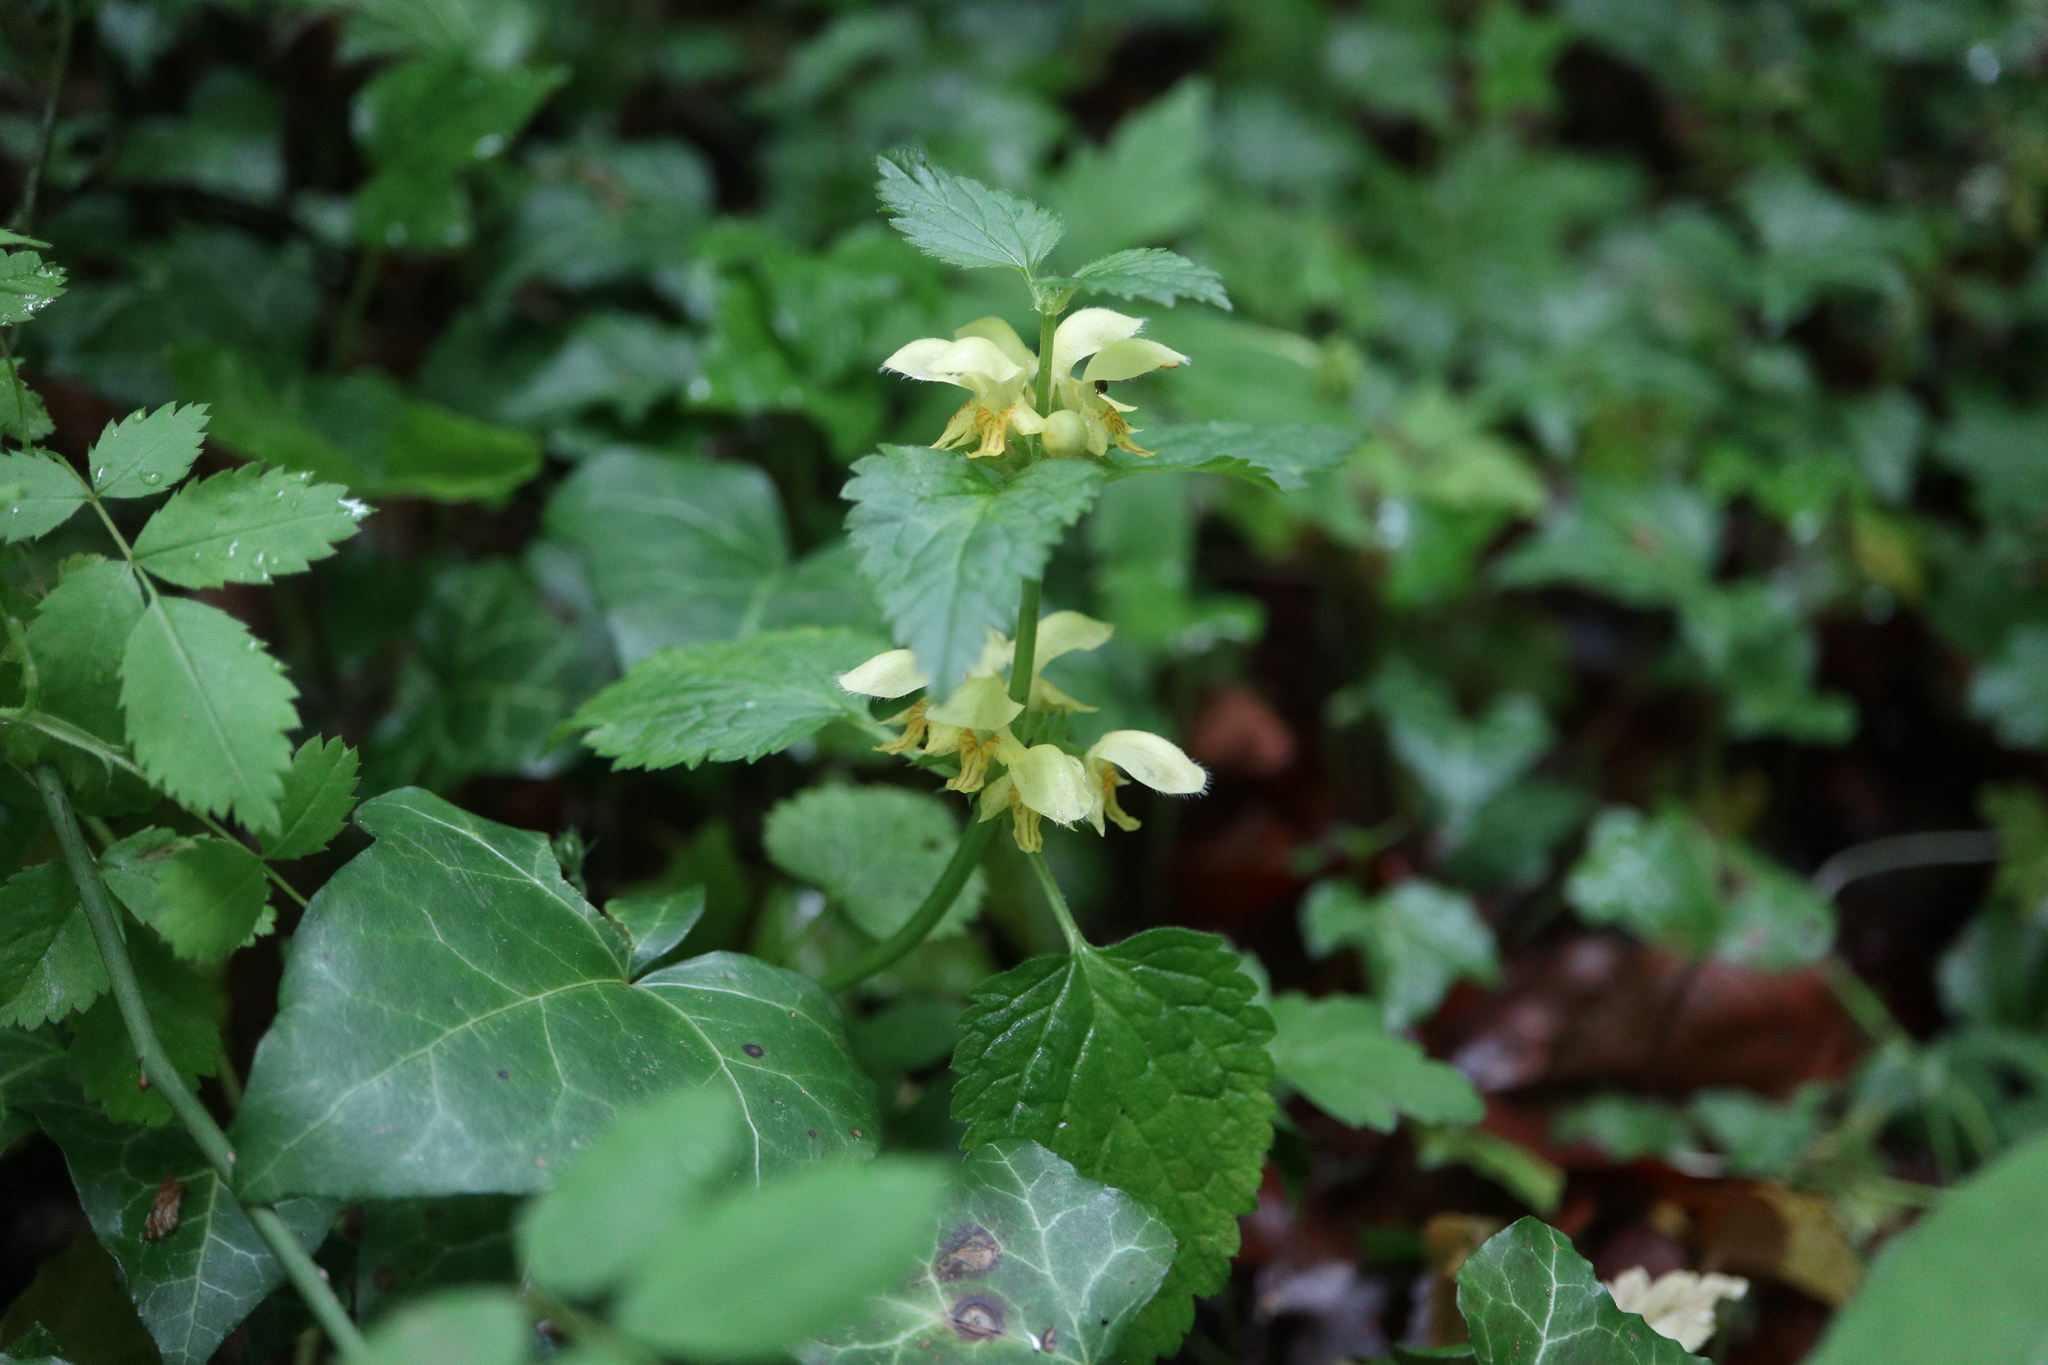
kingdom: Plantae
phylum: Tracheophyta
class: Magnoliopsida
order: Lamiales
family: Lamiaceae
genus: Lamium
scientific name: Lamium galeobdolon
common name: Yellow archangel
